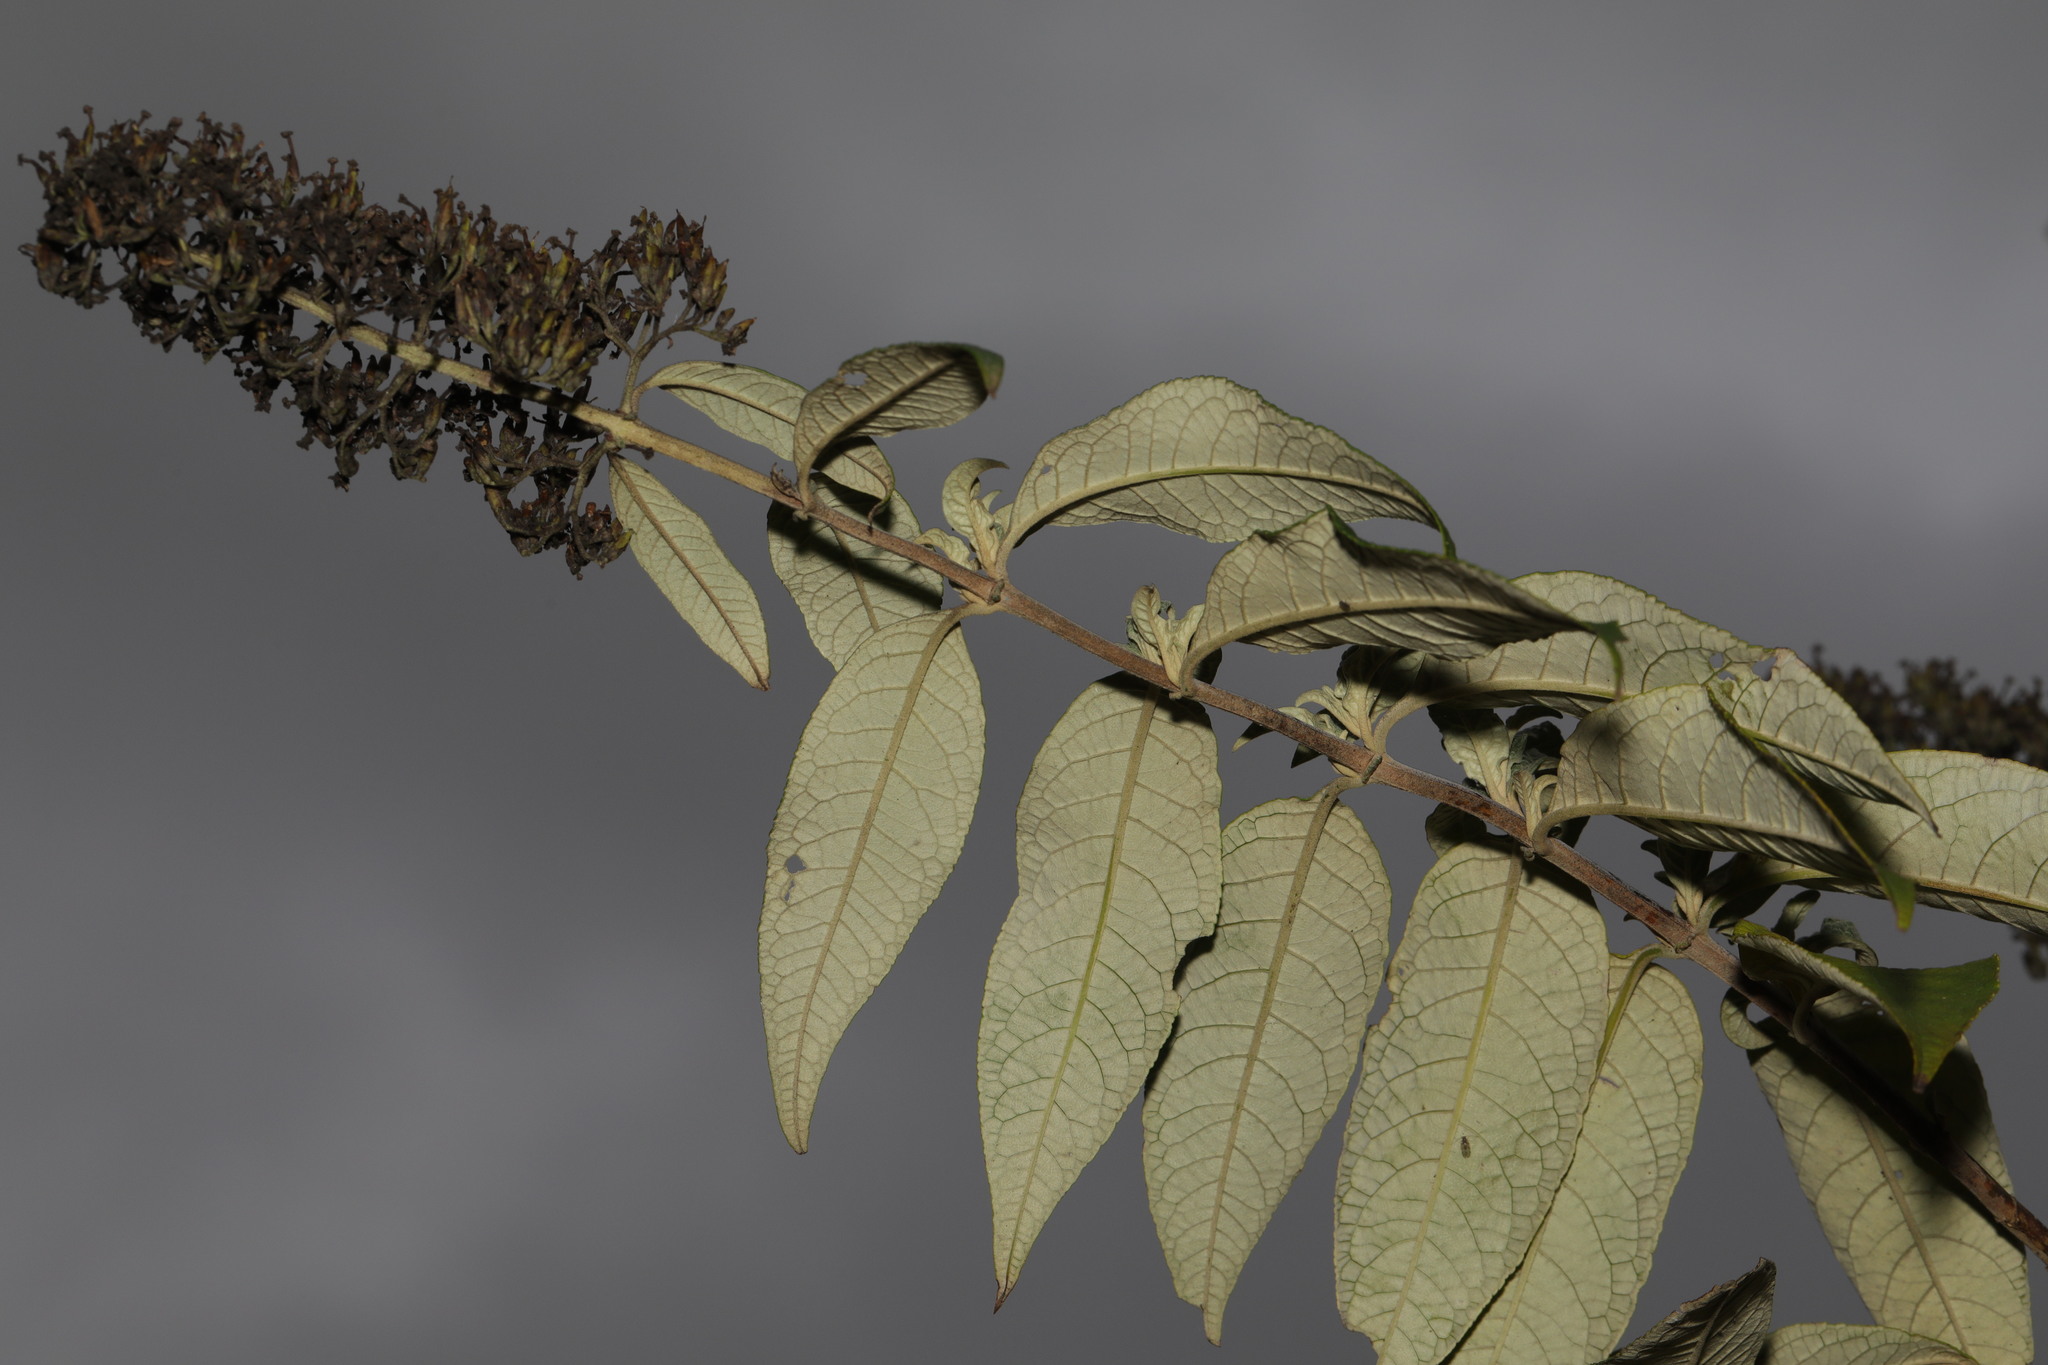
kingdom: Plantae
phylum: Tracheophyta
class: Magnoliopsida
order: Lamiales
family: Scrophulariaceae
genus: Buddleja
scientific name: Buddleja davidii
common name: Butterfly-bush
